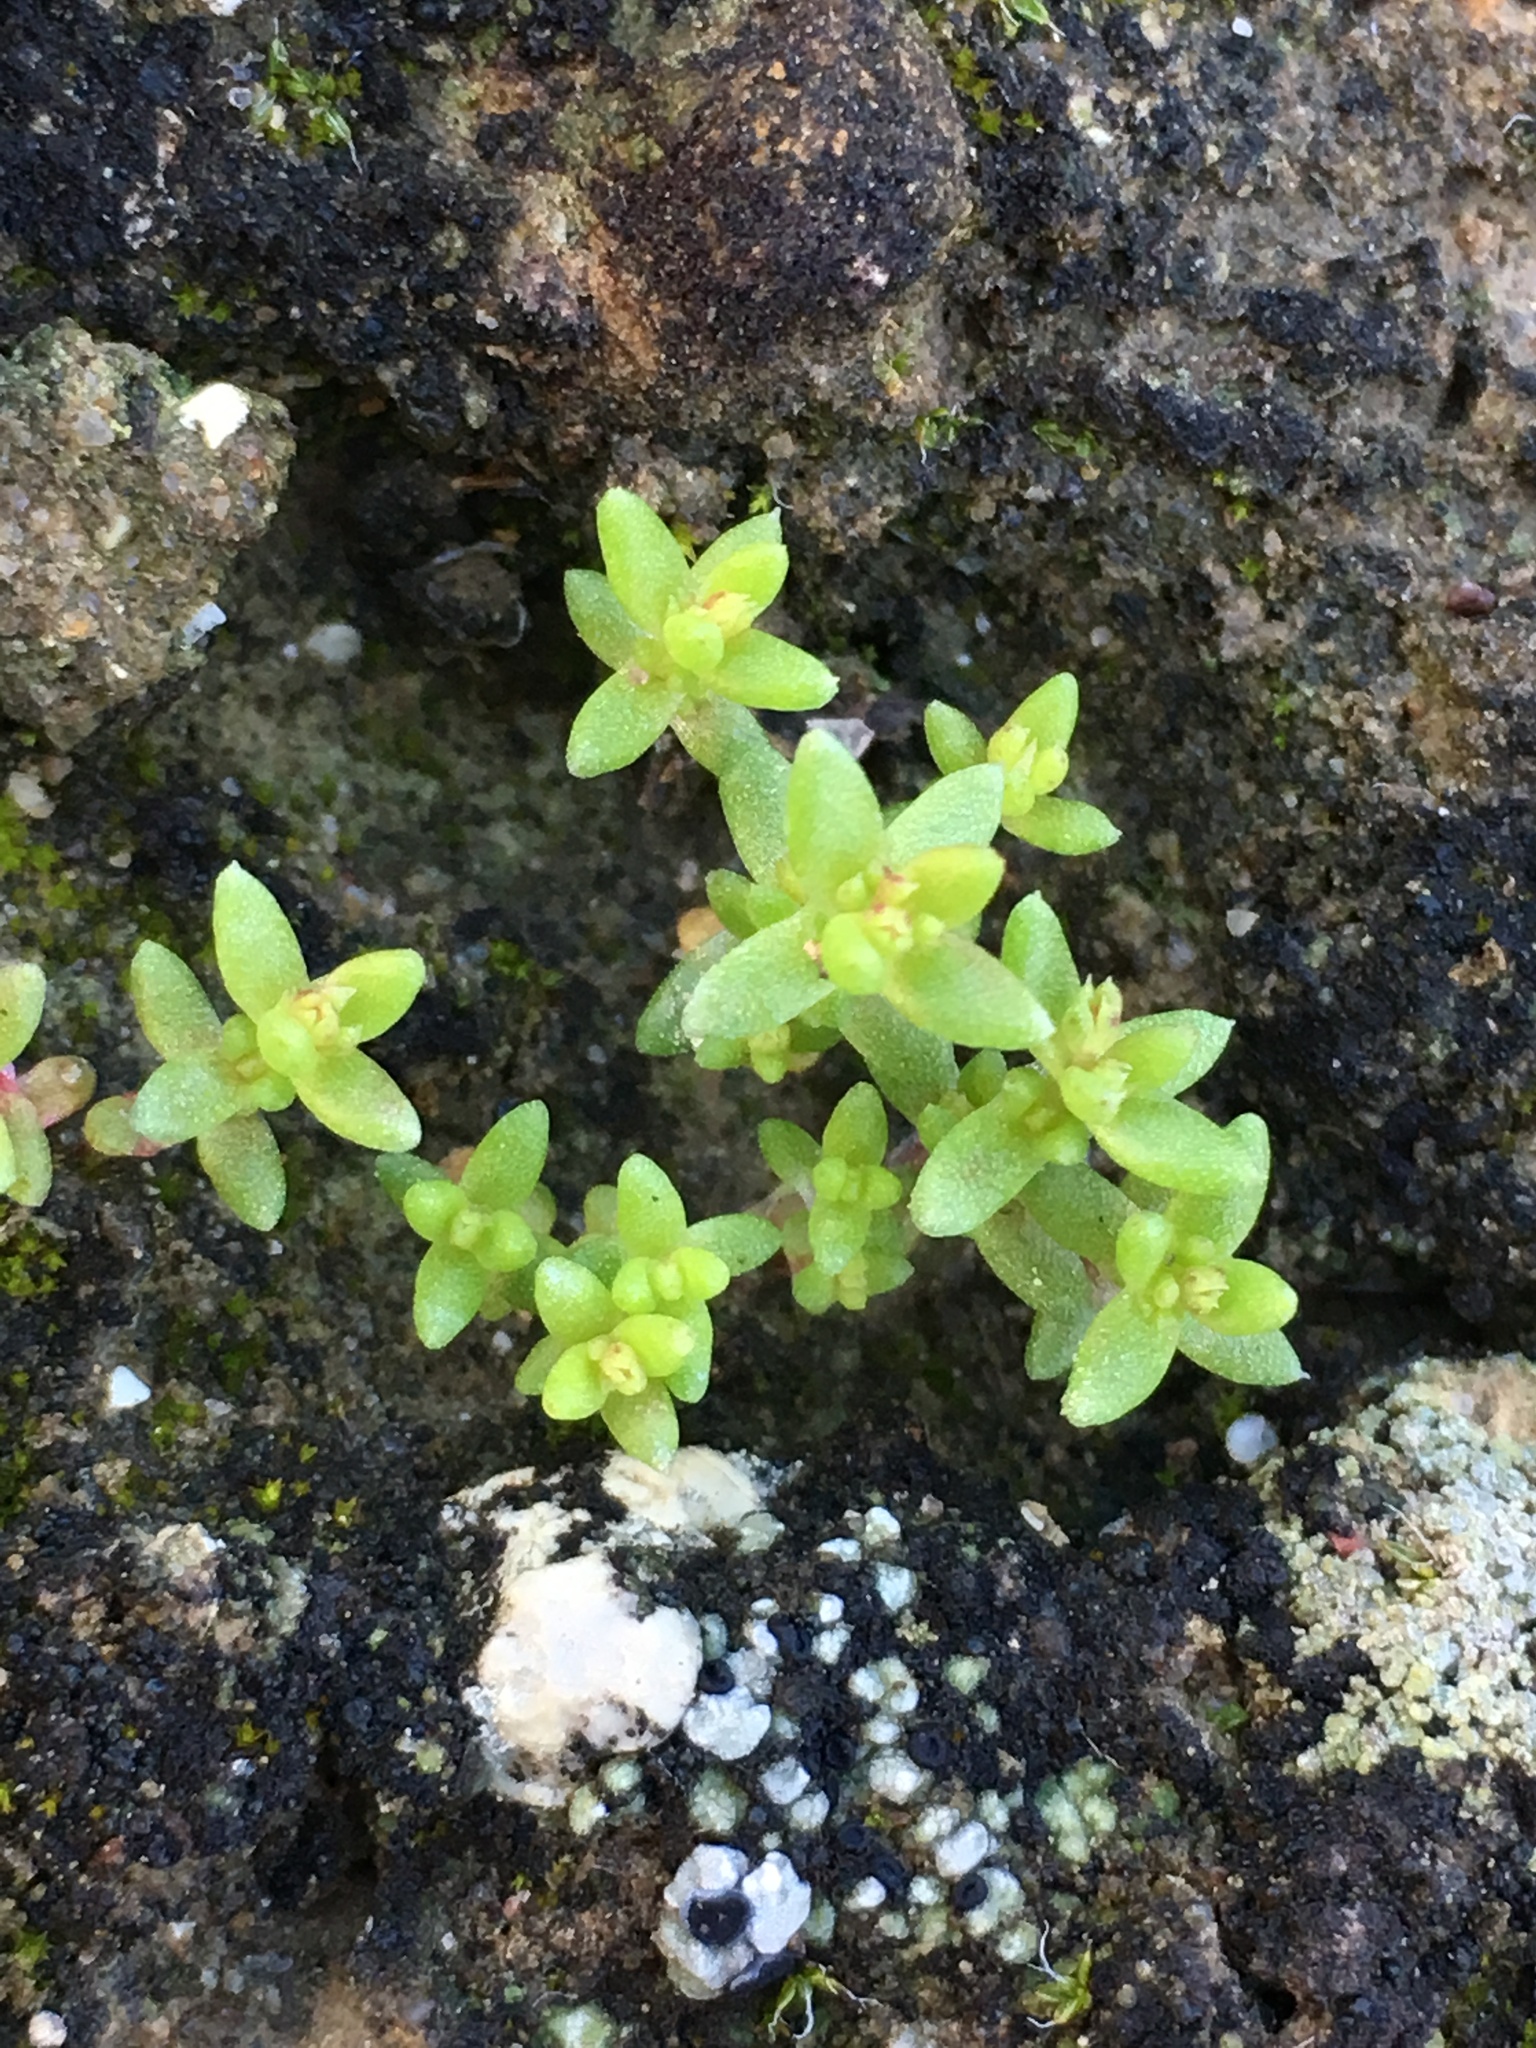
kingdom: Plantae
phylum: Tracheophyta
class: Magnoliopsida
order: Saxifragales
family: Crassulaceae
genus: Crassula
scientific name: Crassula connata
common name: Erect pygmyweed
